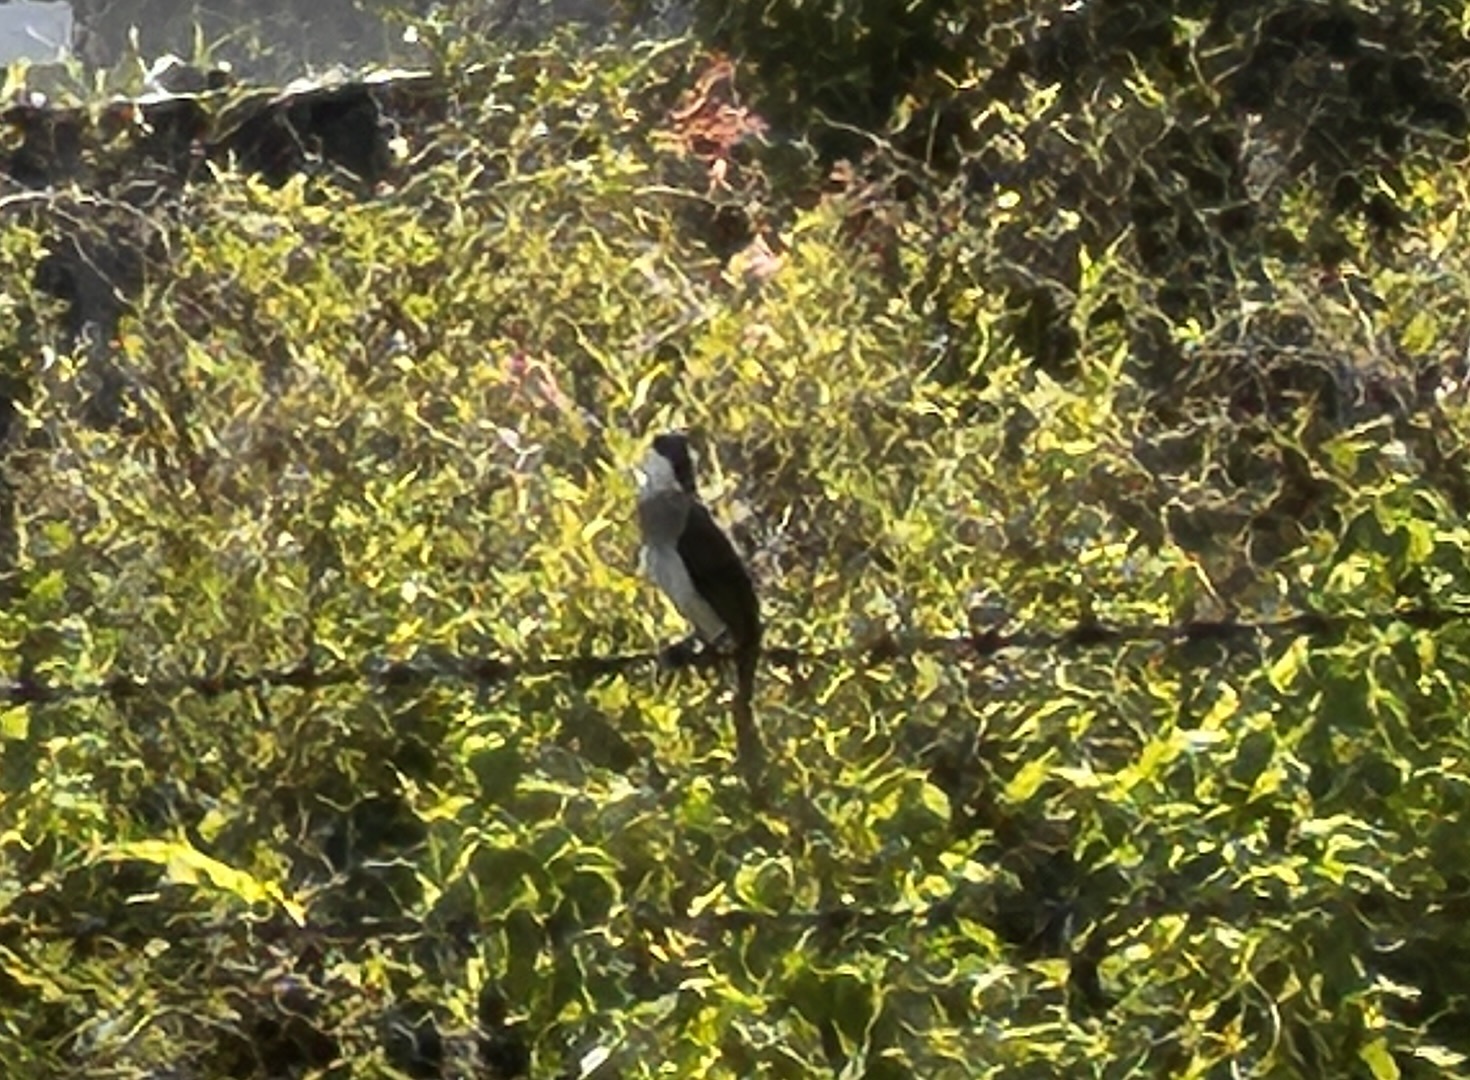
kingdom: Animalia
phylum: Chordata
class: Aves
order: Passeriformes
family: Pycnonotidae
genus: Pycnonotus
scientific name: Pycnonotus sinensis
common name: Light-vented bulbul
